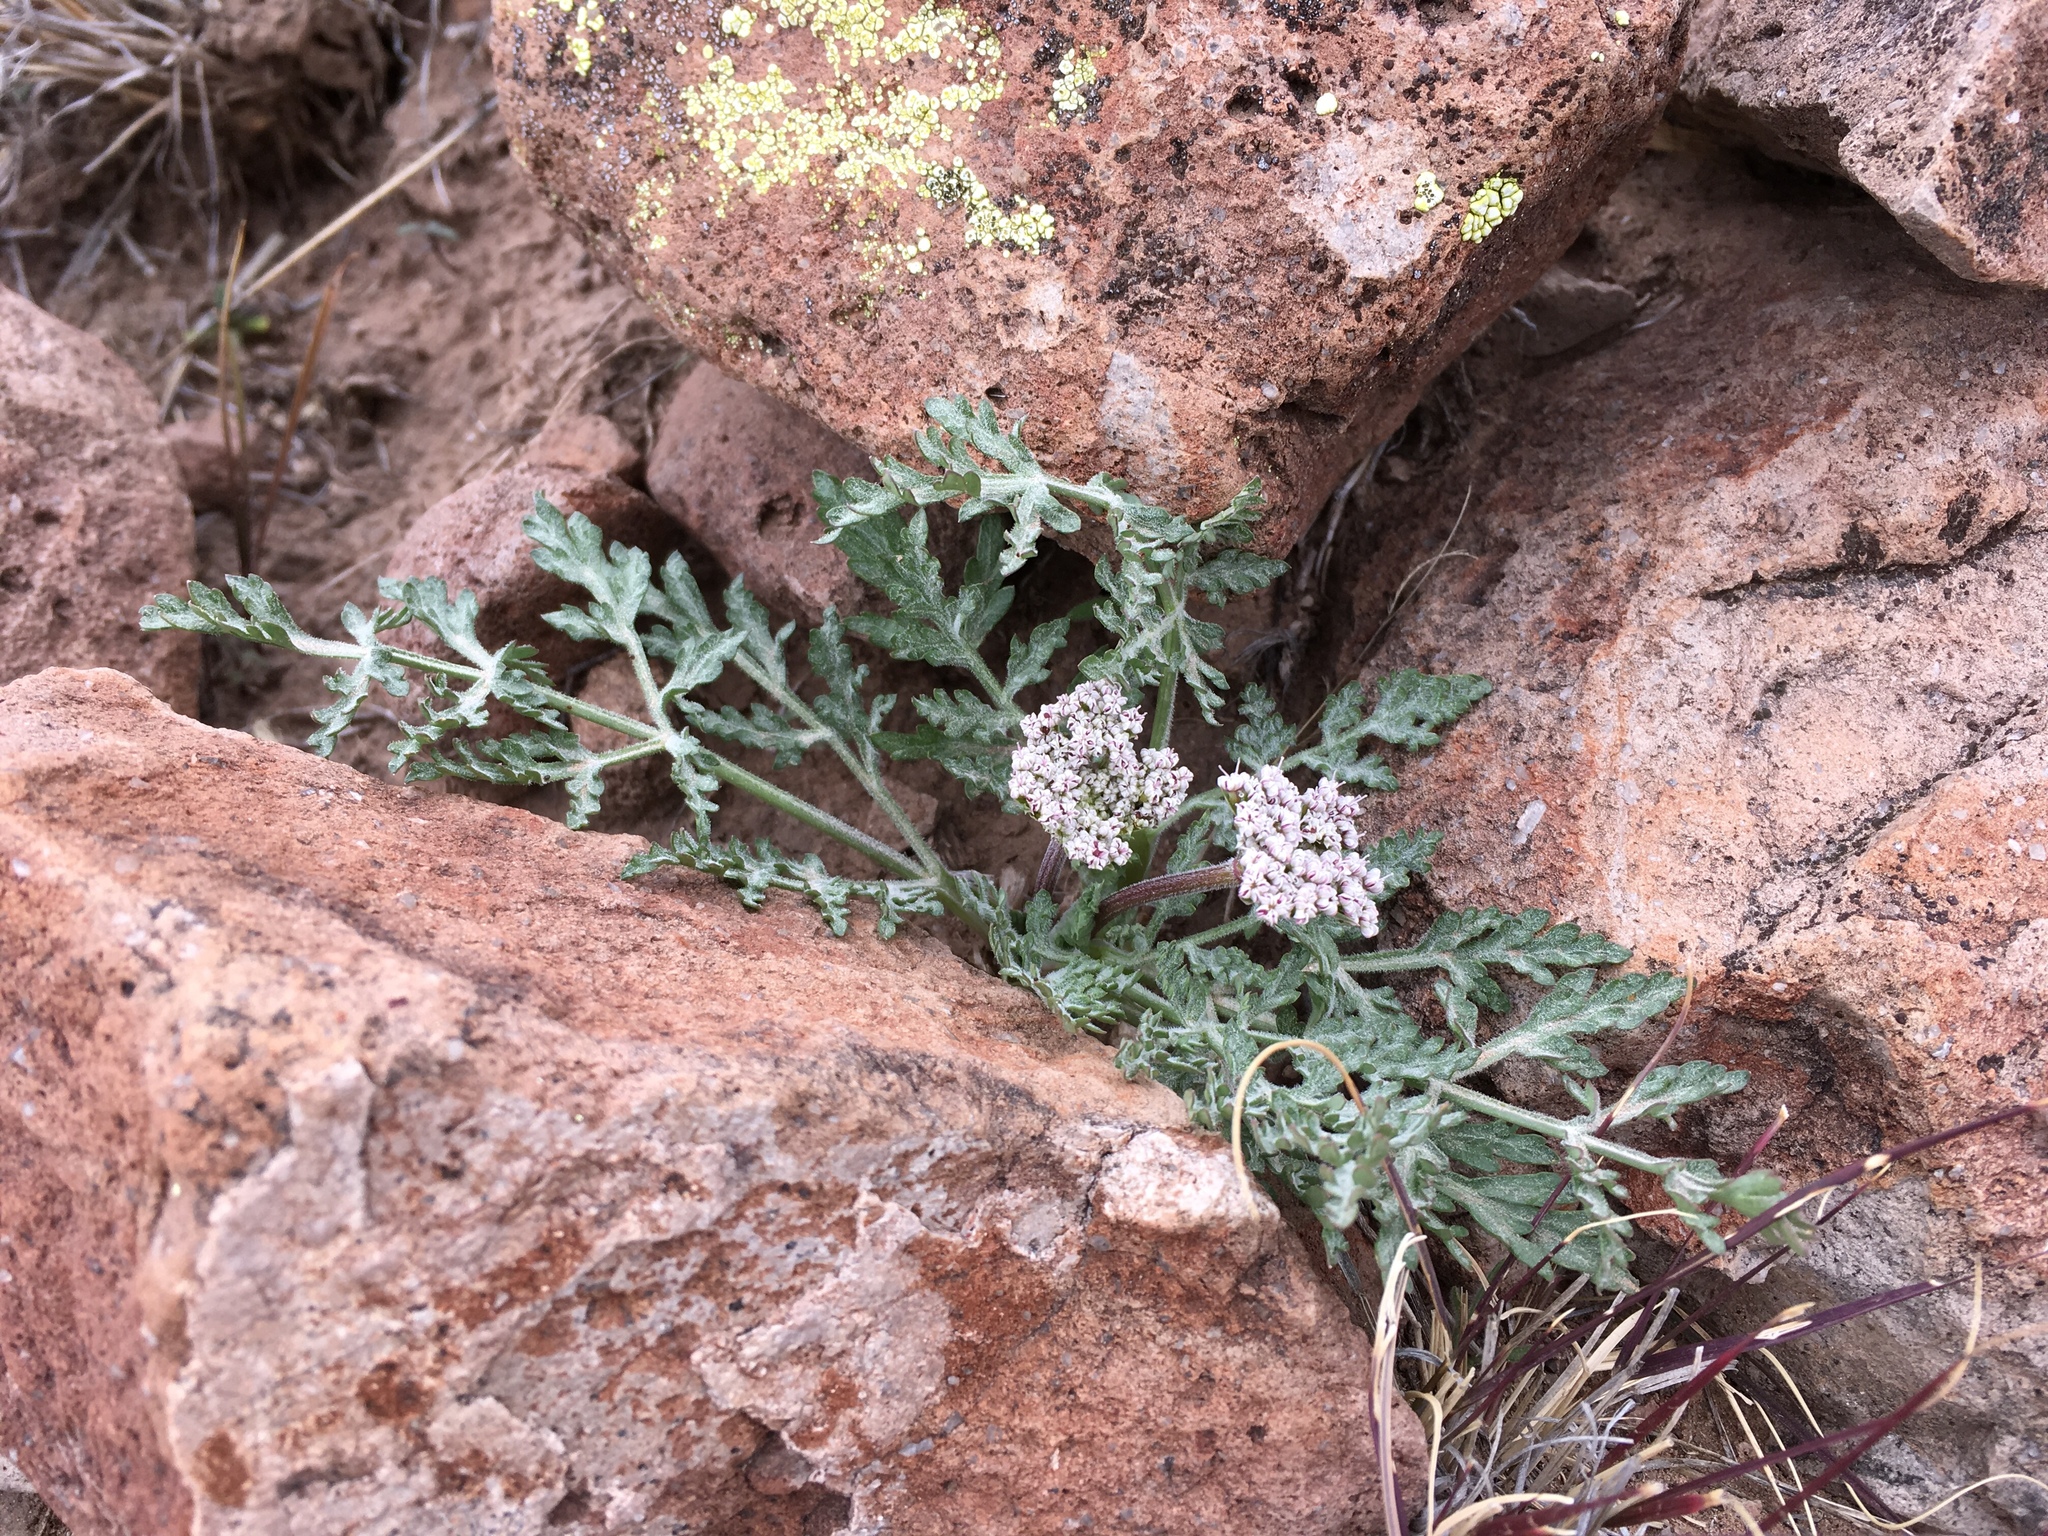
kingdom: Plantae
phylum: Tracheophyta
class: Magnoliopsida
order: Apiales
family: Apiaceae
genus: Lomatium
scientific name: Lomatium nevadense
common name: Nevada lomatium
